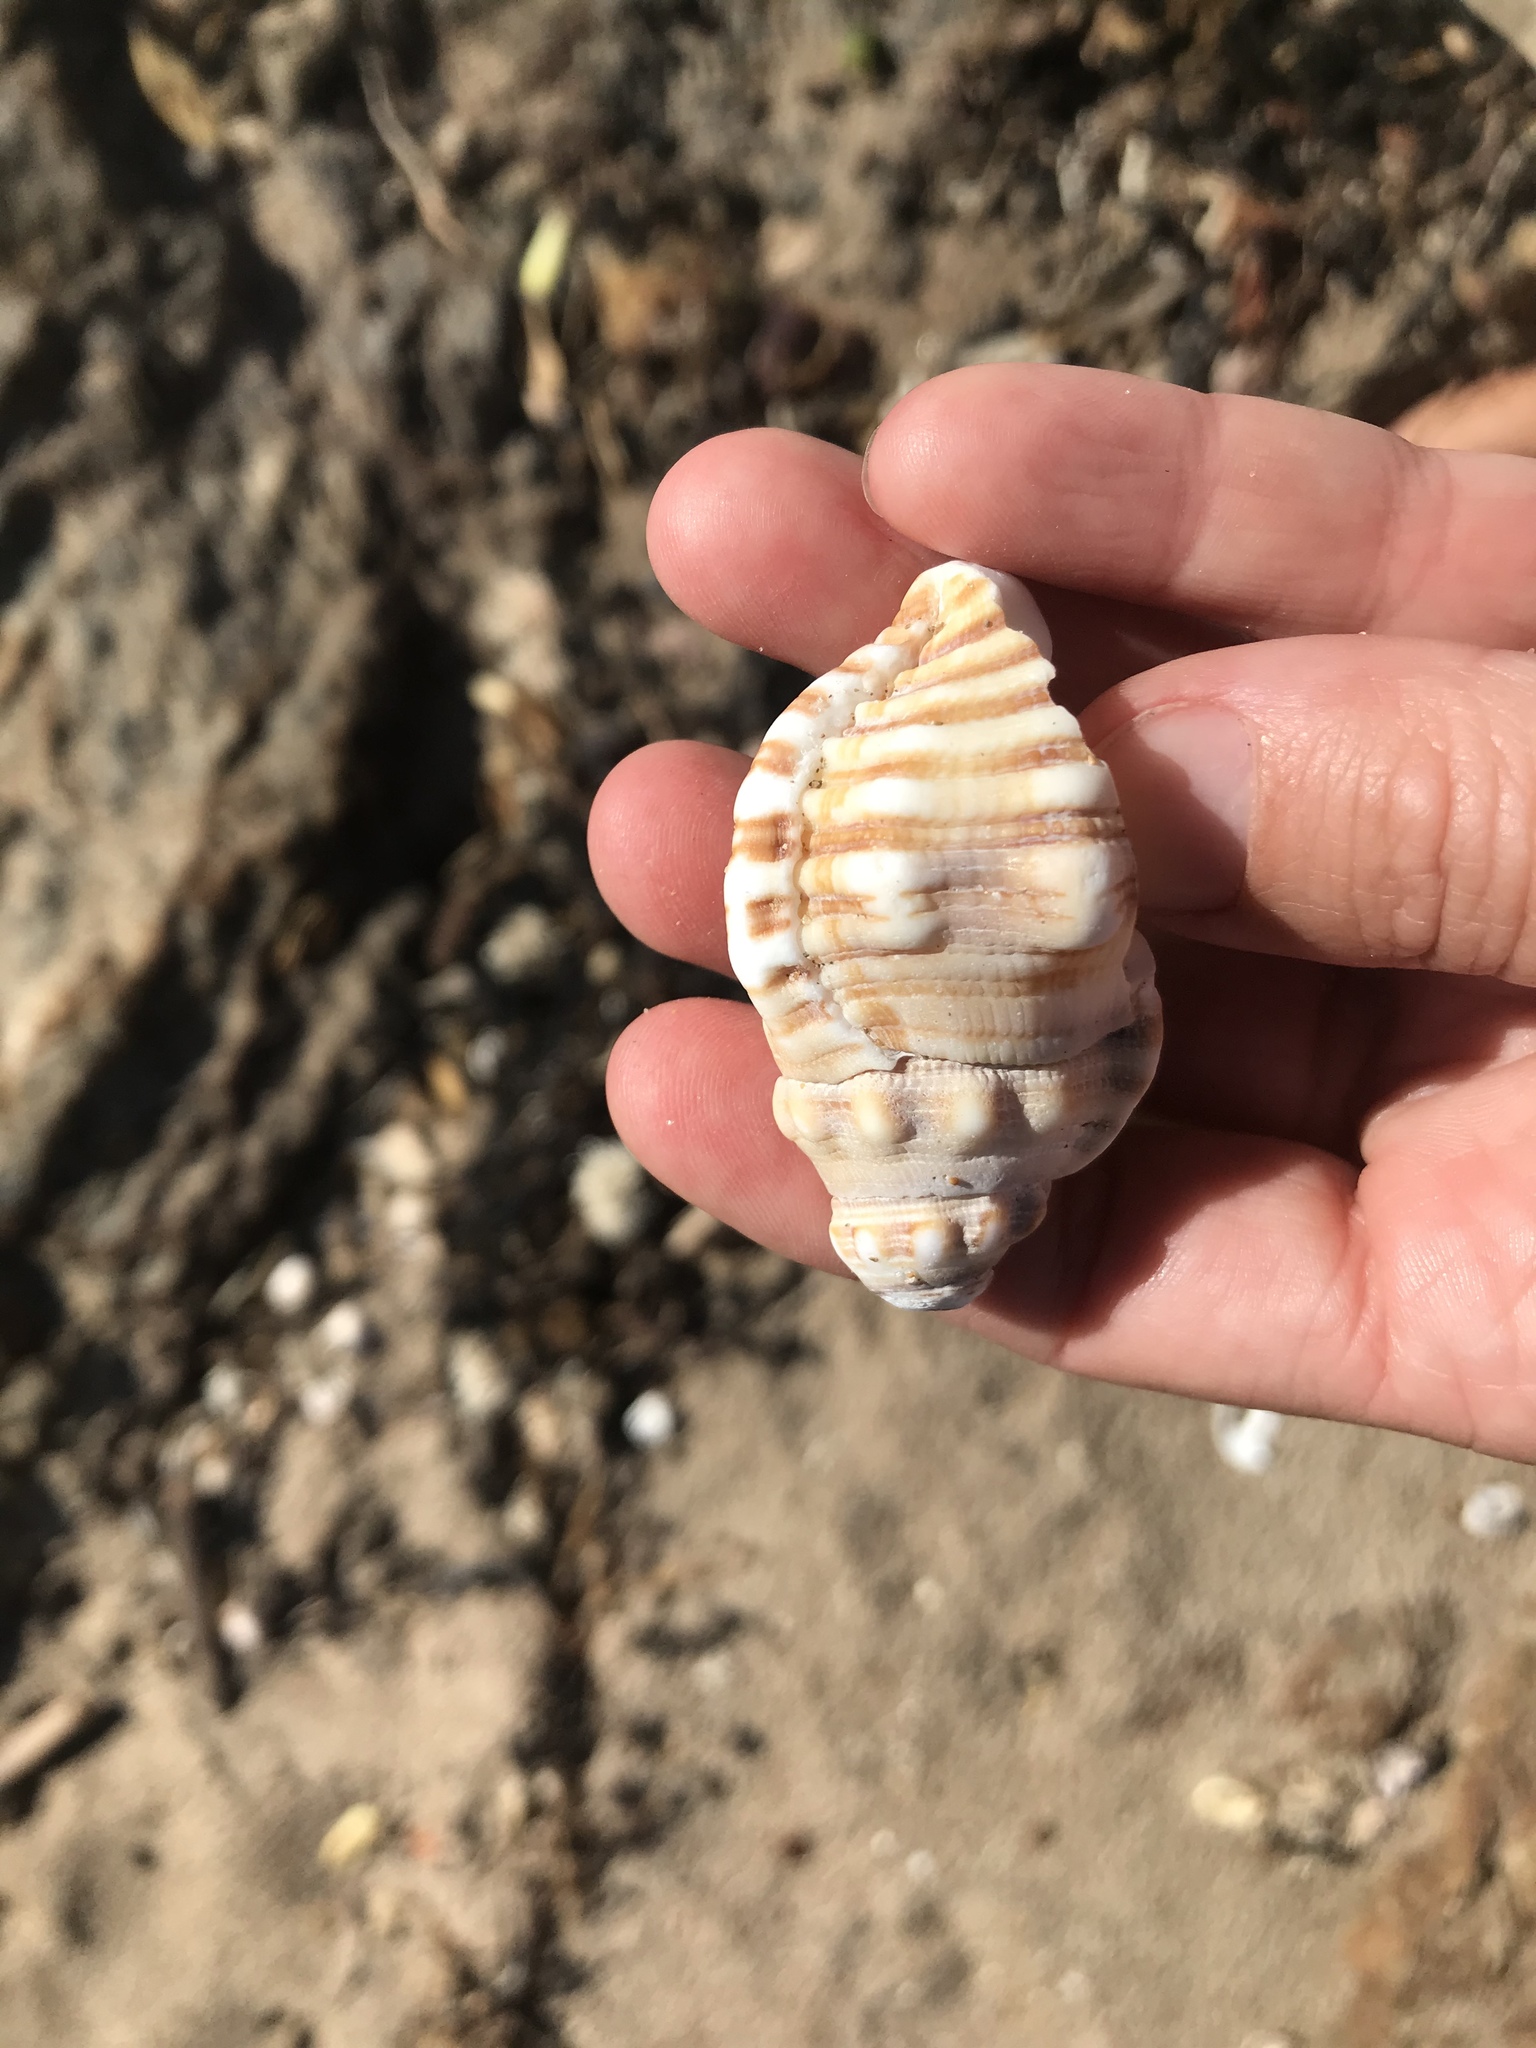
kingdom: Animalia
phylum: Mollusca
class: Gastropoda
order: Littorinimorpha
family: Cymatiidae
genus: Cabestana
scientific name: Cabestana spengleri
